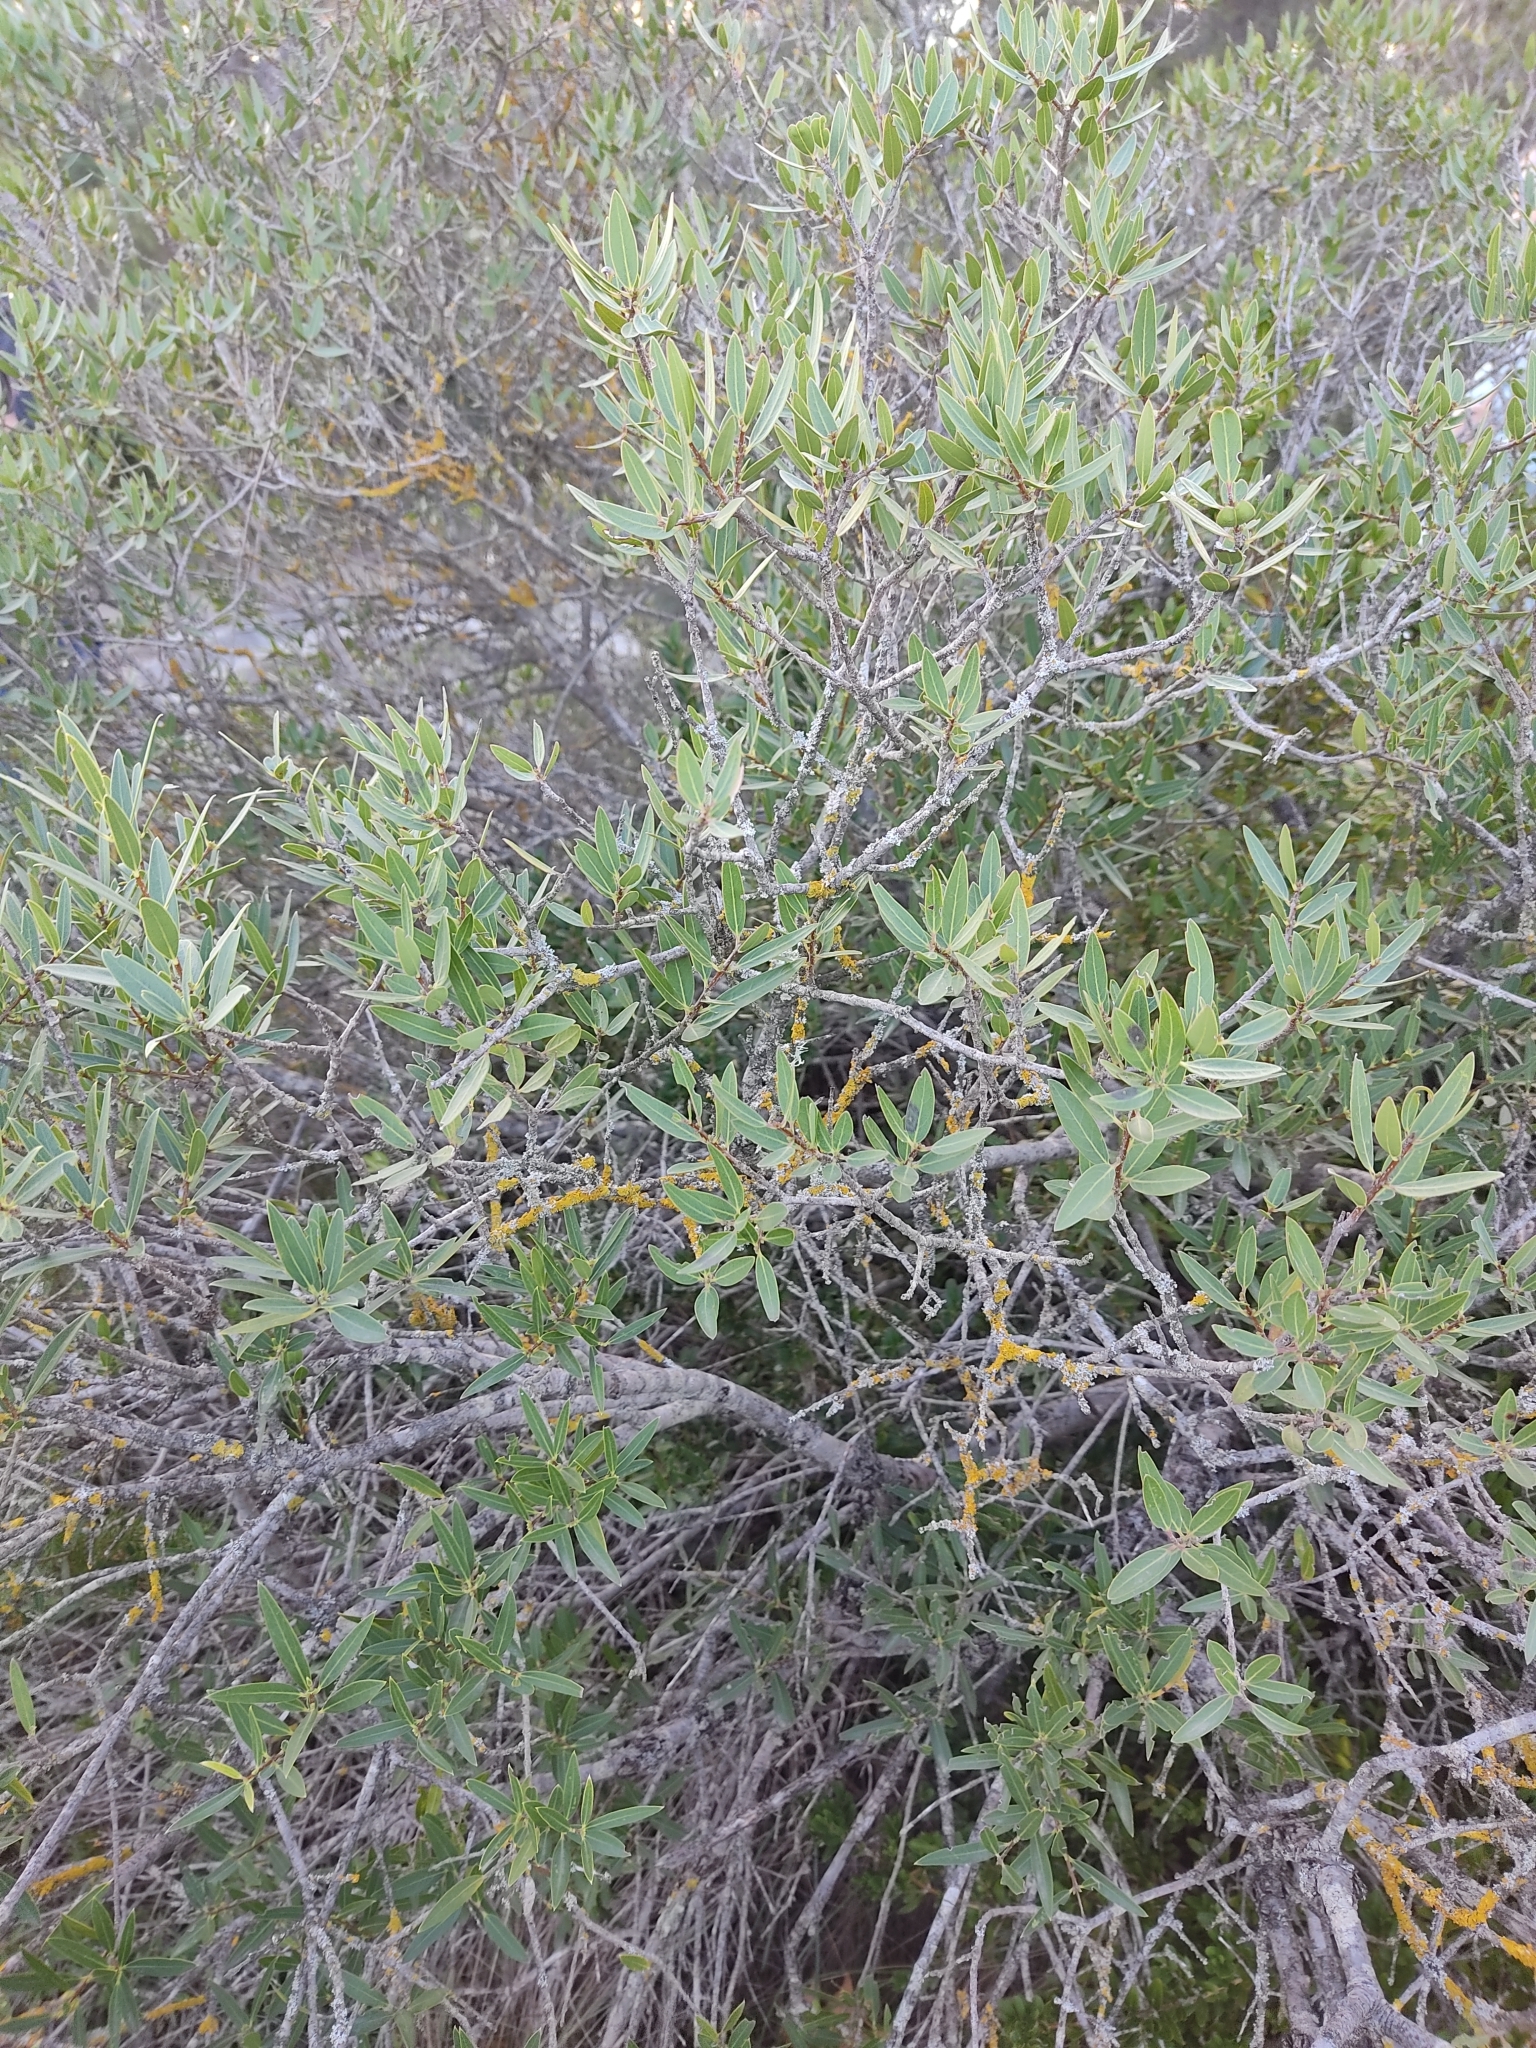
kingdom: Plantae
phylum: Tracheophyta
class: Magnoliopsida
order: Lamiales
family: Oleaceae
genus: Phillyrea
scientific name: Phillyrea angustifolia
